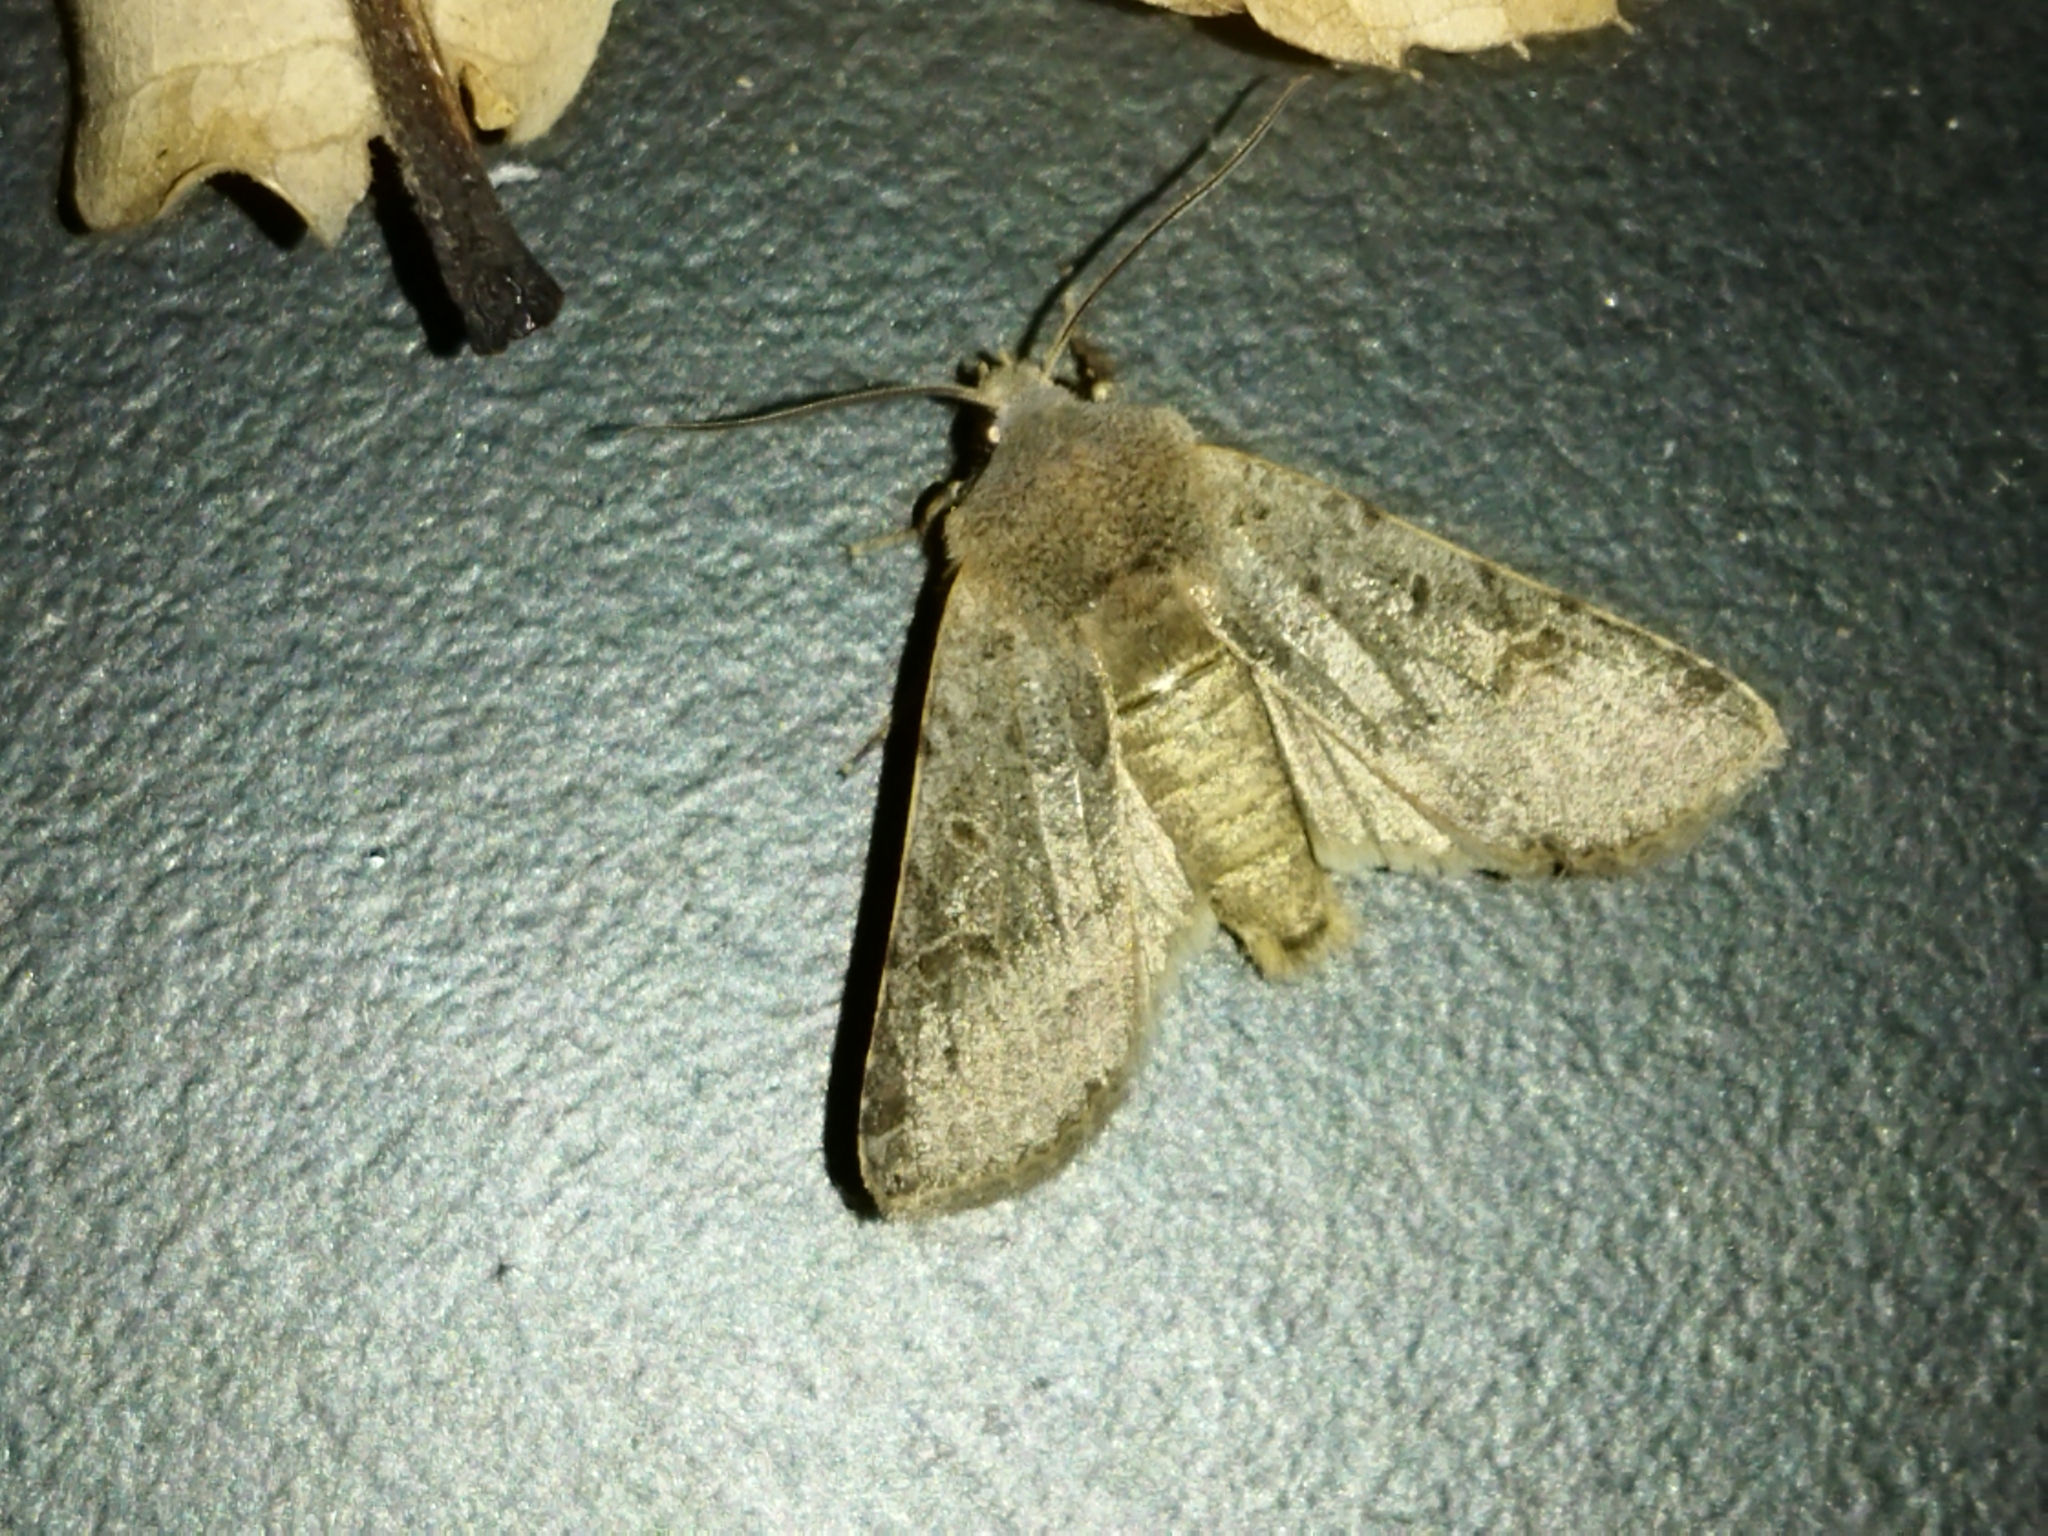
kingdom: Animalia
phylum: Arthropoda
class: Insecta
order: Lepidoptera
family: Noctuidae
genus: Agrochola
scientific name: Agrochola lychnidis
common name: Beaded chestnut
